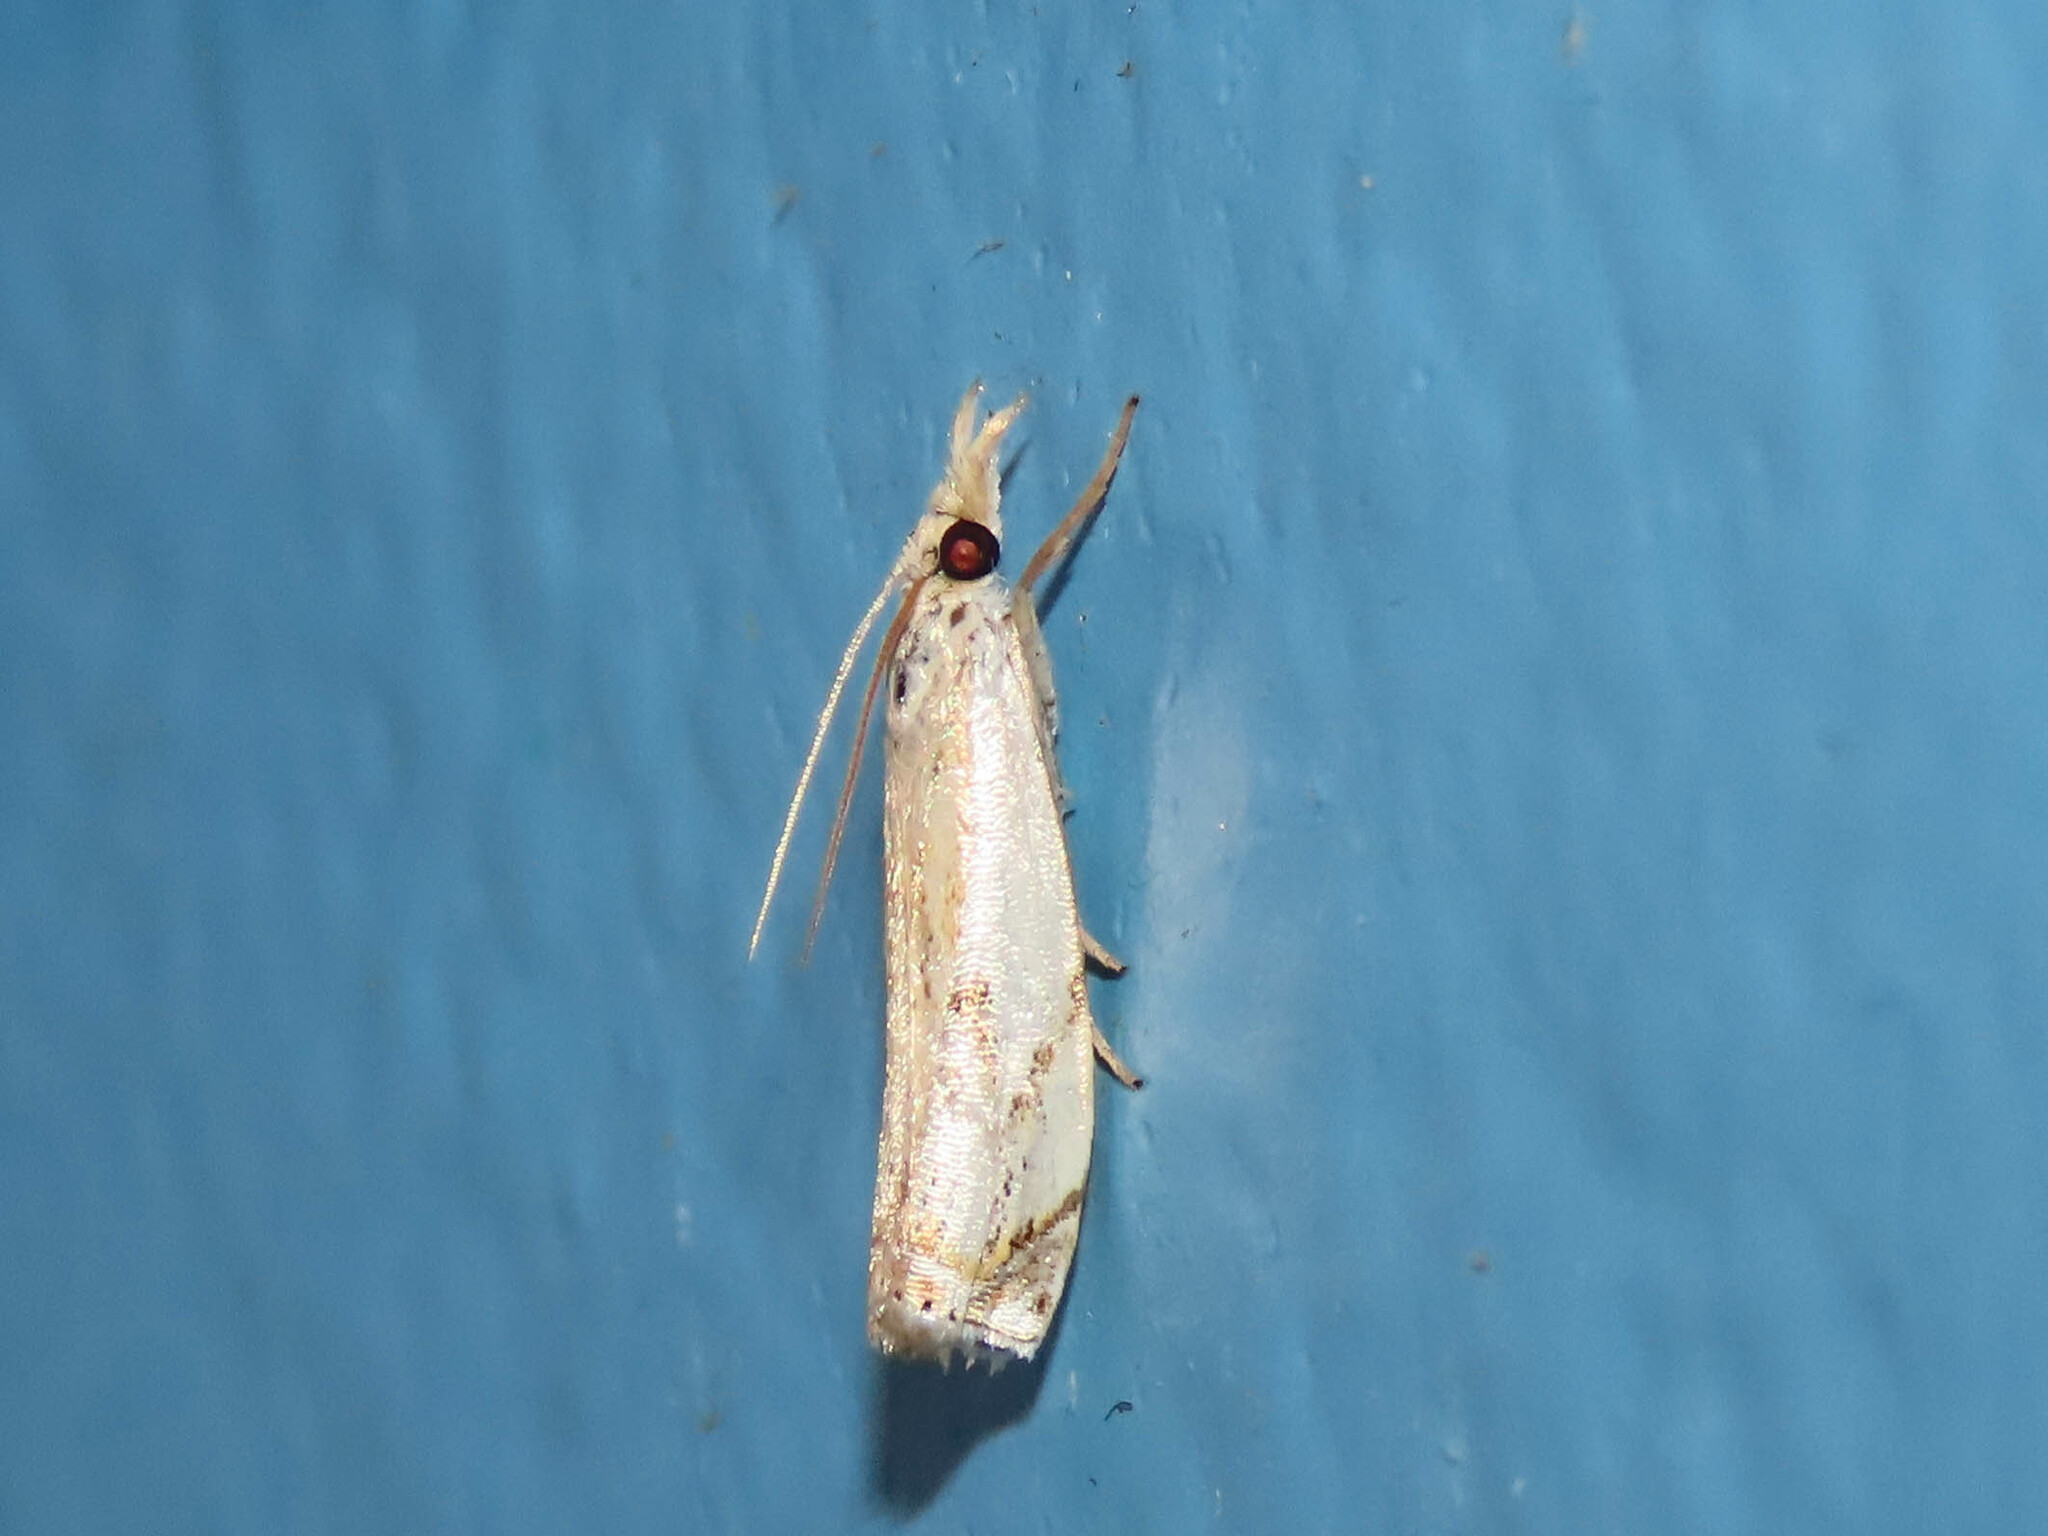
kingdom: Animalia
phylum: Arthropoda
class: Insecta
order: Lepidoptera
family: Crambidae
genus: Crambus
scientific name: Crambus agitatellus
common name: Double-banded grass-veneer
